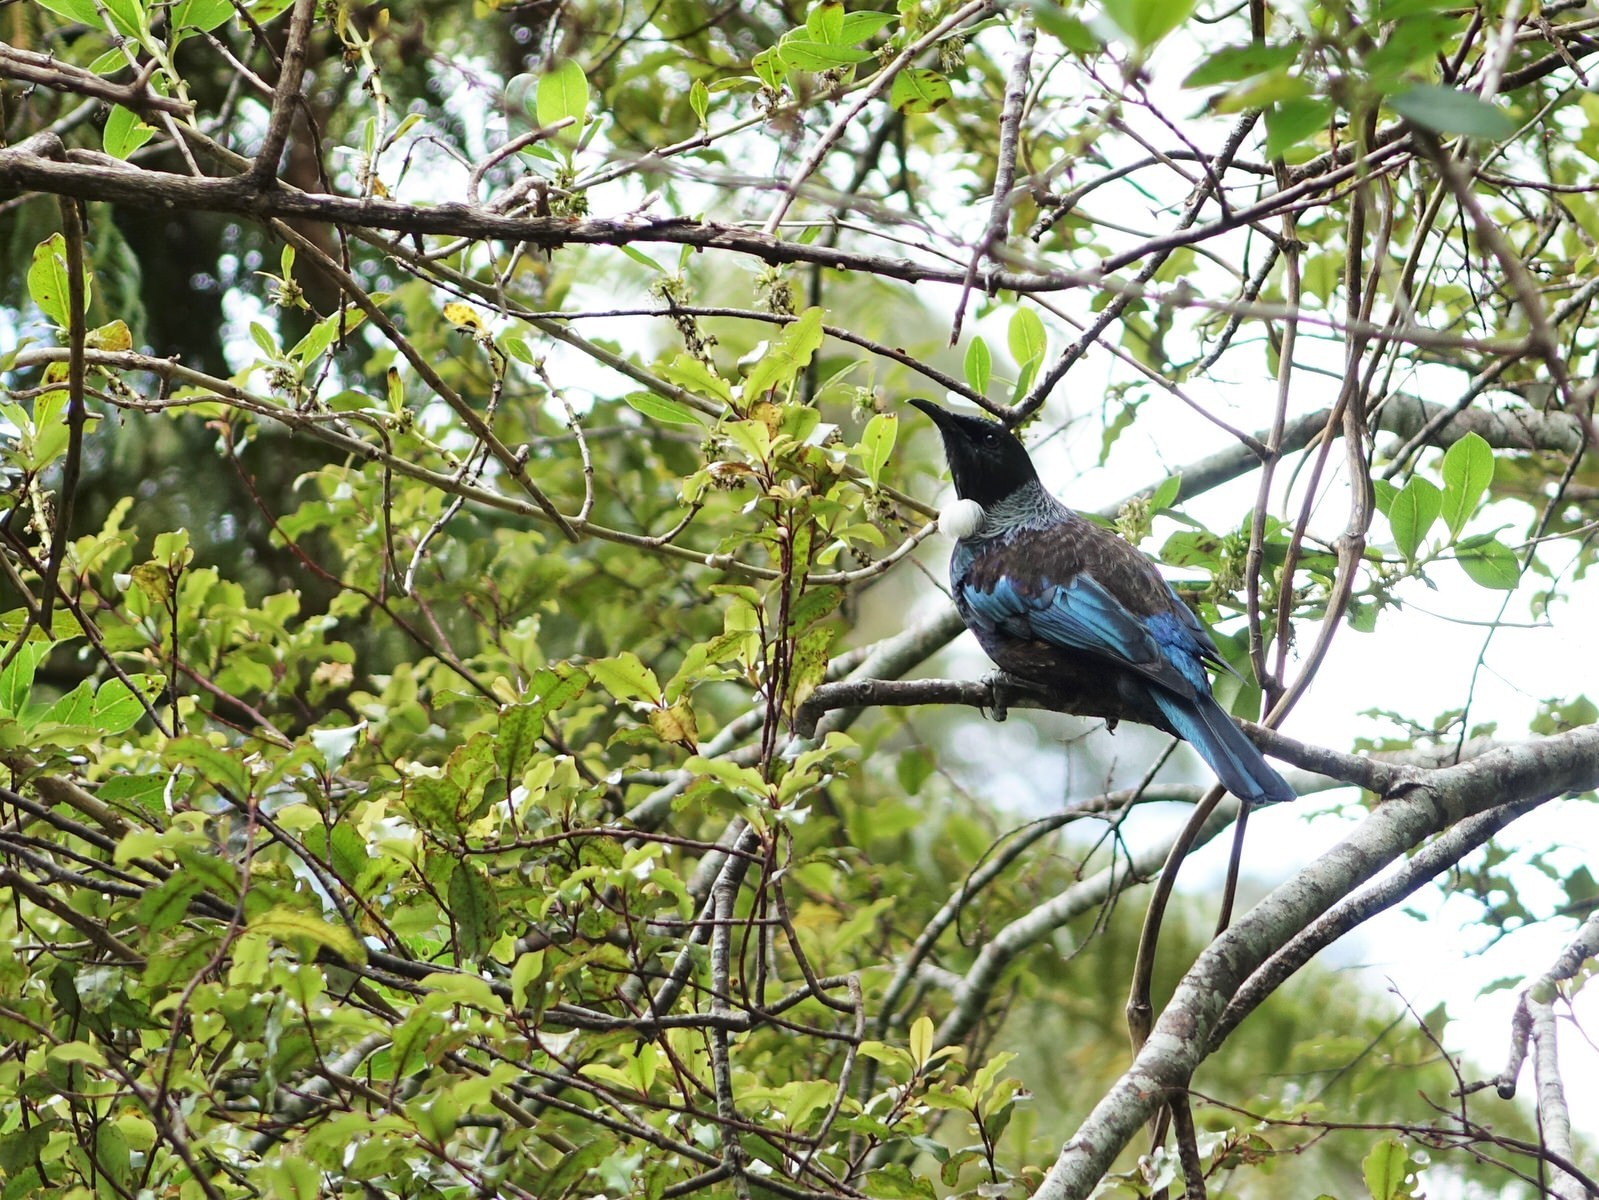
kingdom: Animalia
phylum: Chordata
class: Aves
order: Passeriformes
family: Meliphagidae
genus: Prosthemadera
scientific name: Prosthemadera novaeseelandiae
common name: Tui
